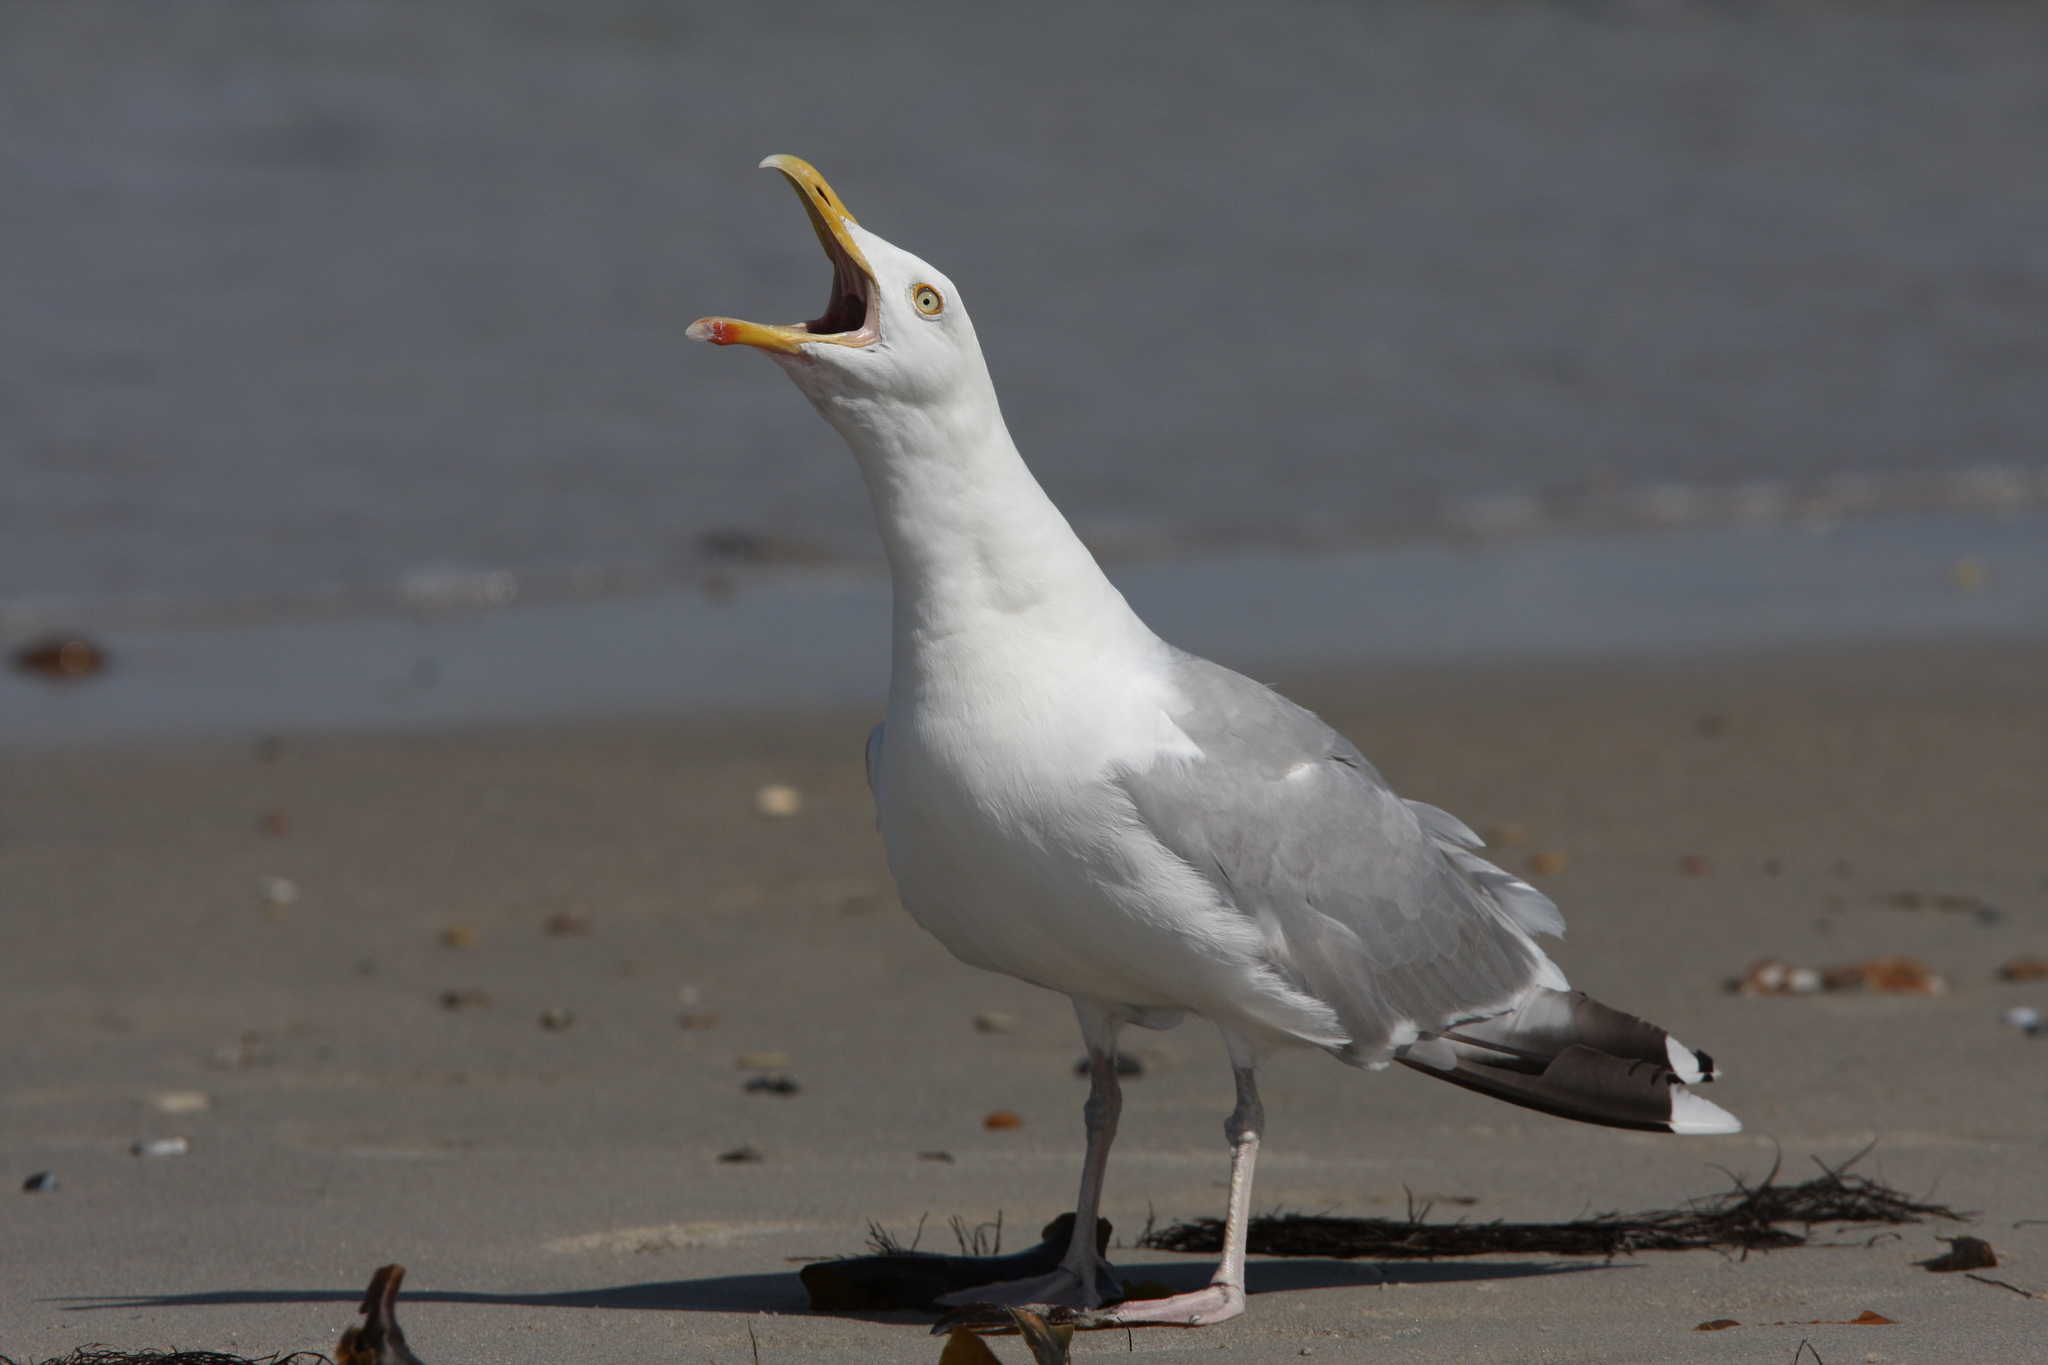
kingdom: Animalia
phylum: Chordata
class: Aves
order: Charadriiformes
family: Laridae
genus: Larus
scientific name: Larus argentatus
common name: Herring gull
